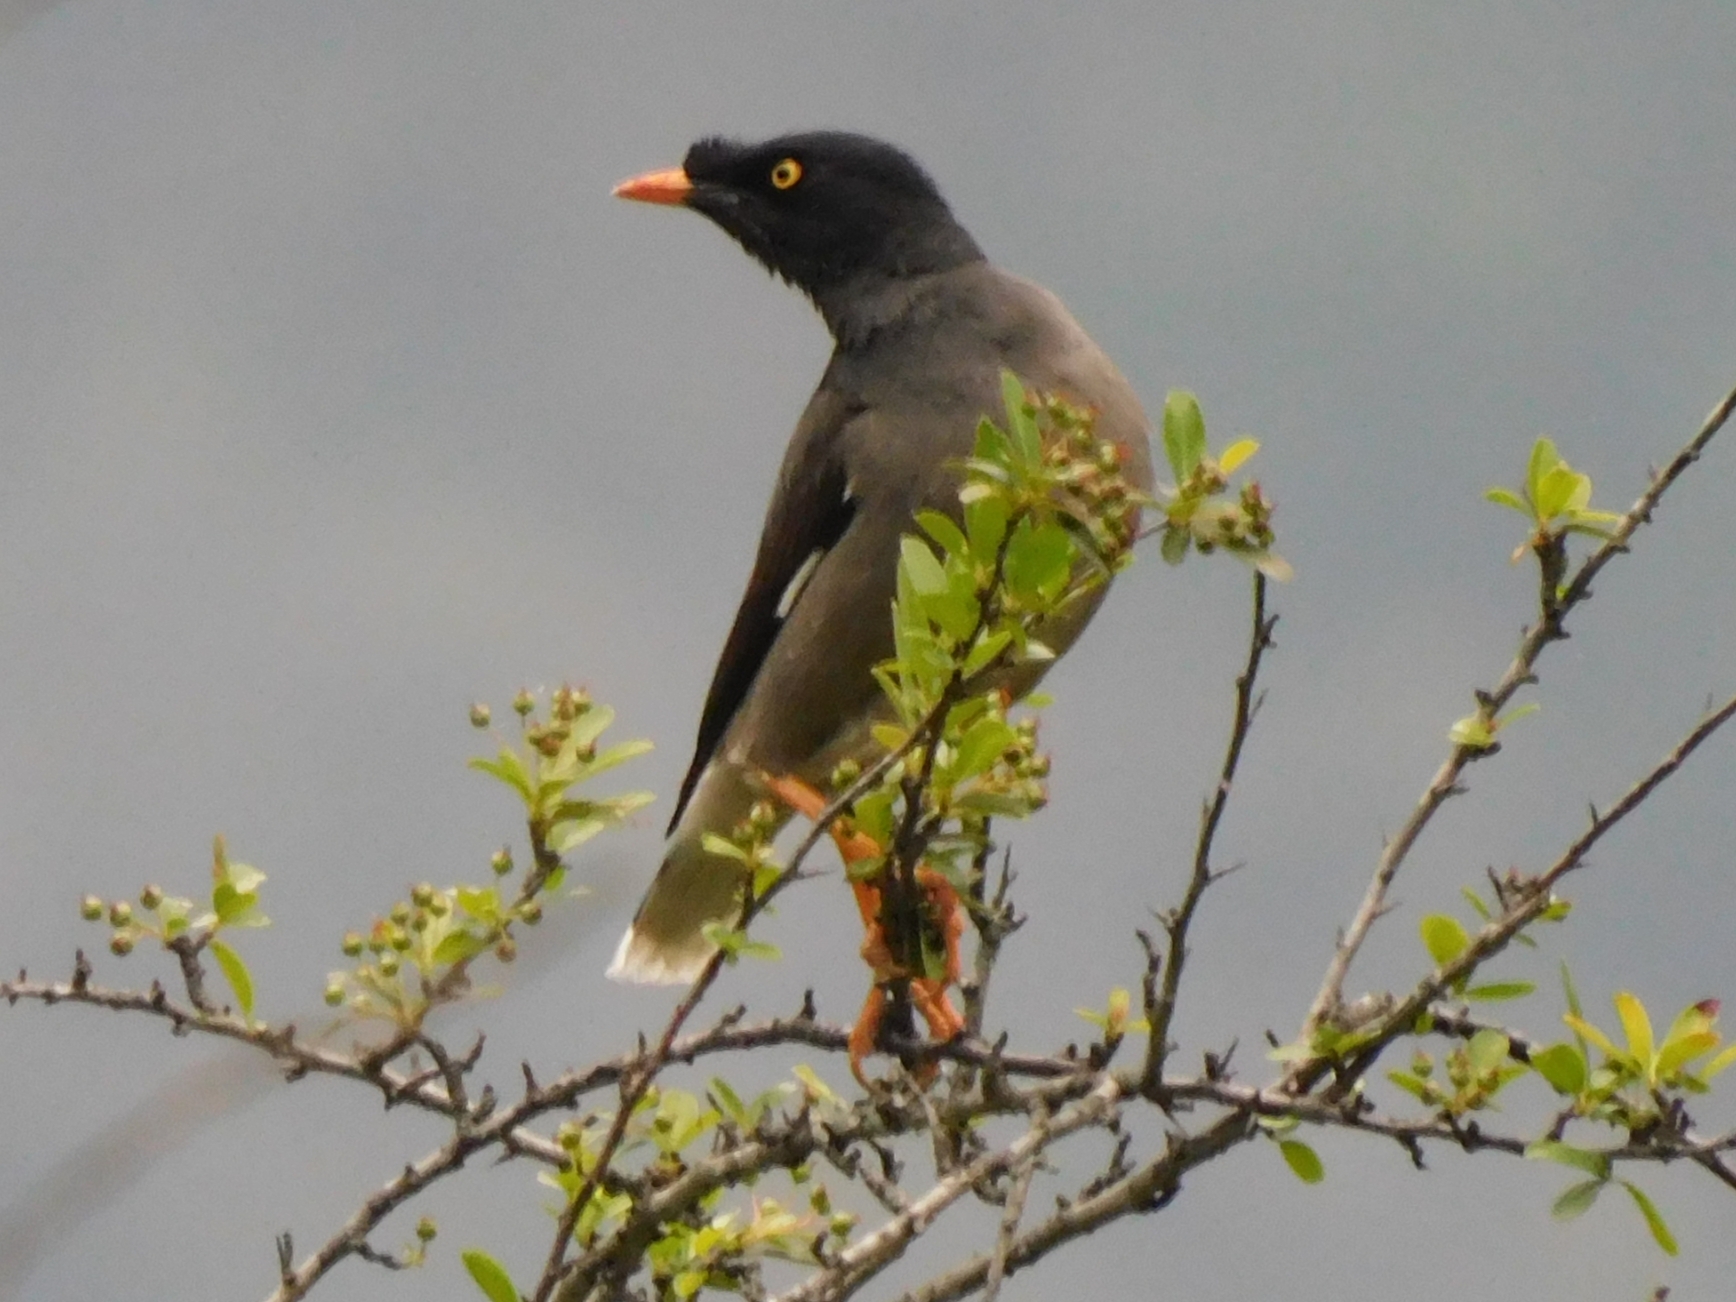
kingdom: Animalia
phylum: Chordata
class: Aves
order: Passeriformes
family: Sturnidae
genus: Acridotheres
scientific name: Acridotheres fuscus
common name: Jungle myna
